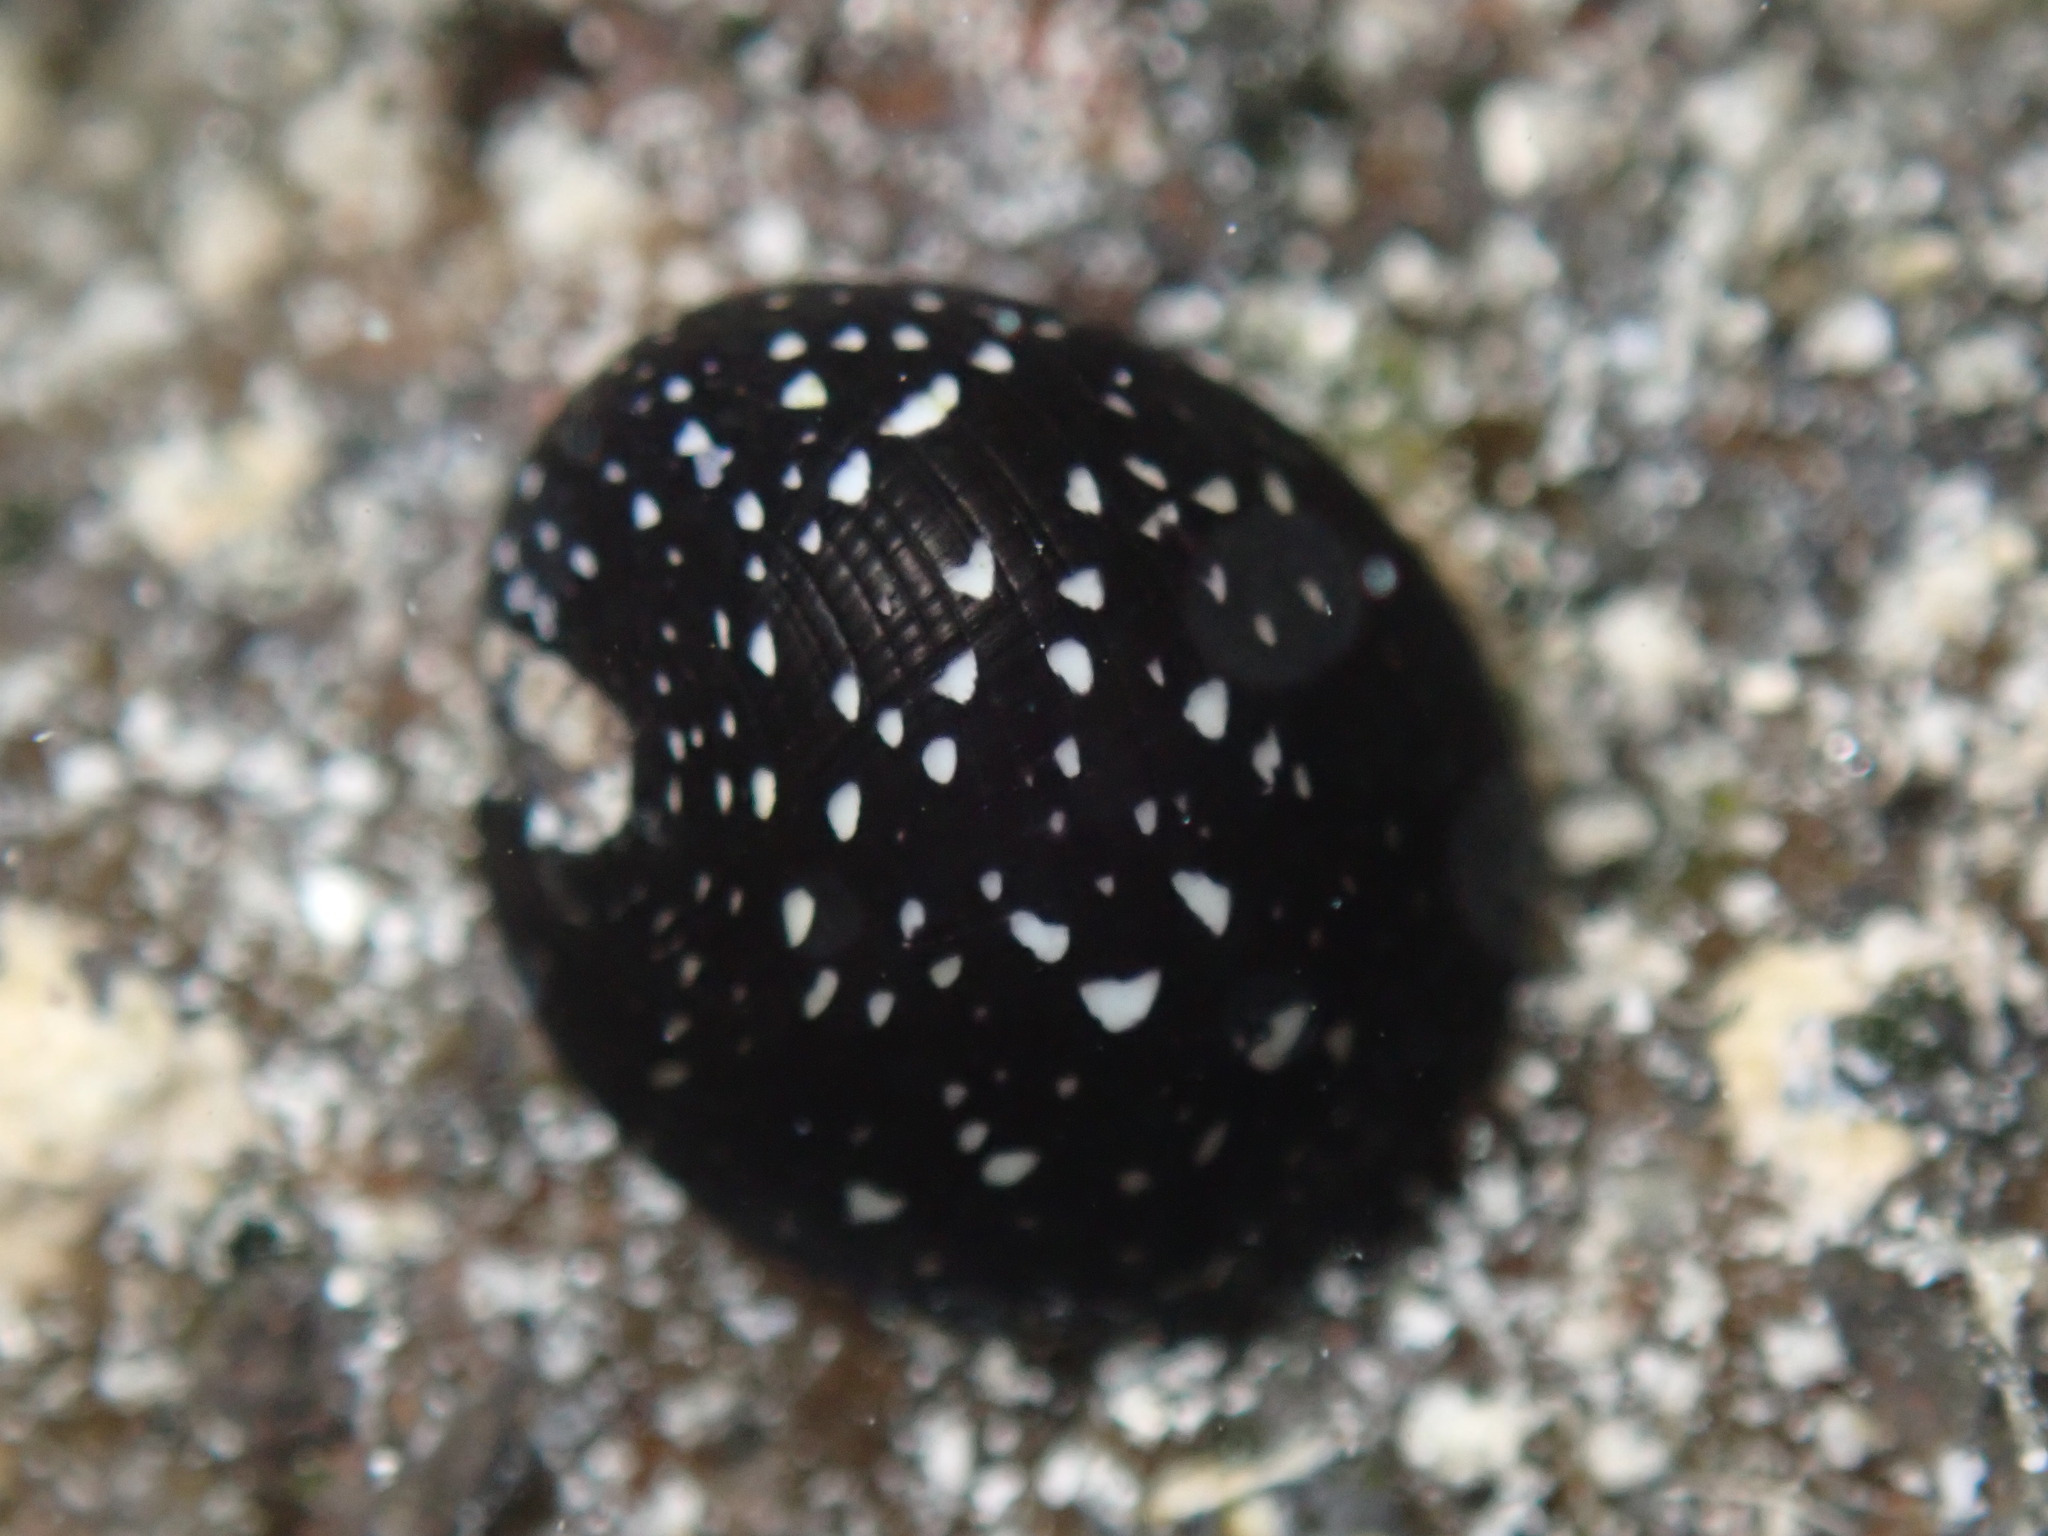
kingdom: Animalia
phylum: Mollusca
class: Gastropoda
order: Cycloneritida
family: Neritidae
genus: Neripteron
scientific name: Neripteron neglectum
